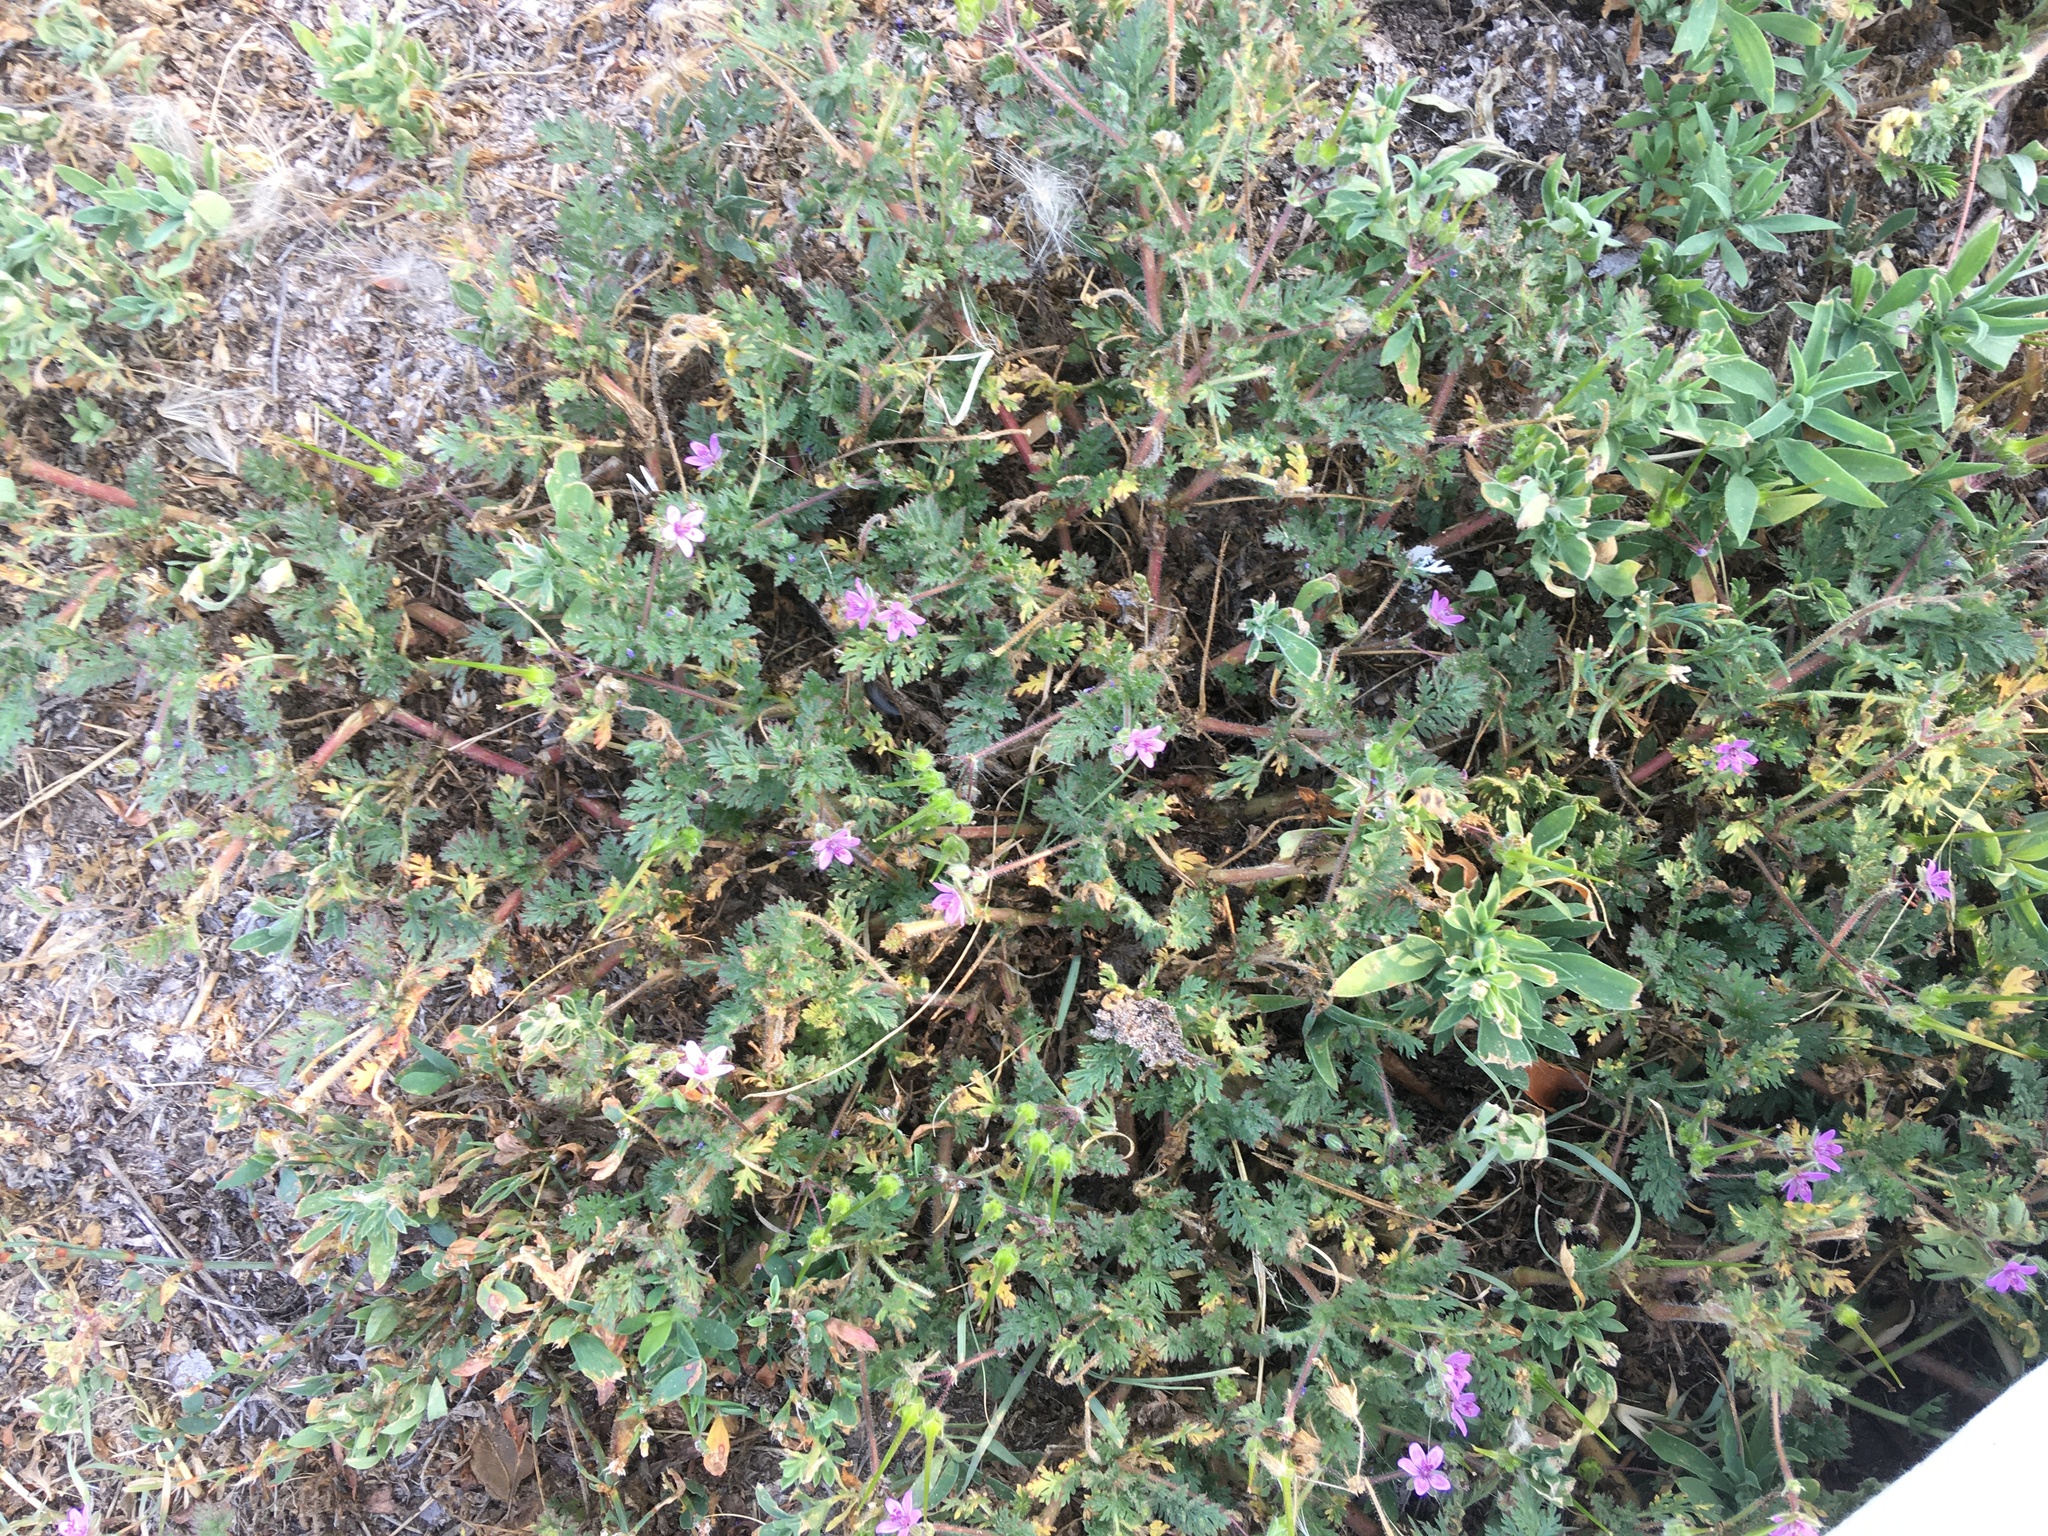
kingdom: Plantae
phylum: Tracheophyta
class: Magnoliopsida
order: Geraniales
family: Geraniaceae
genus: Erodium
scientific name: Erodium cicutarium
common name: Common stork's-bill
